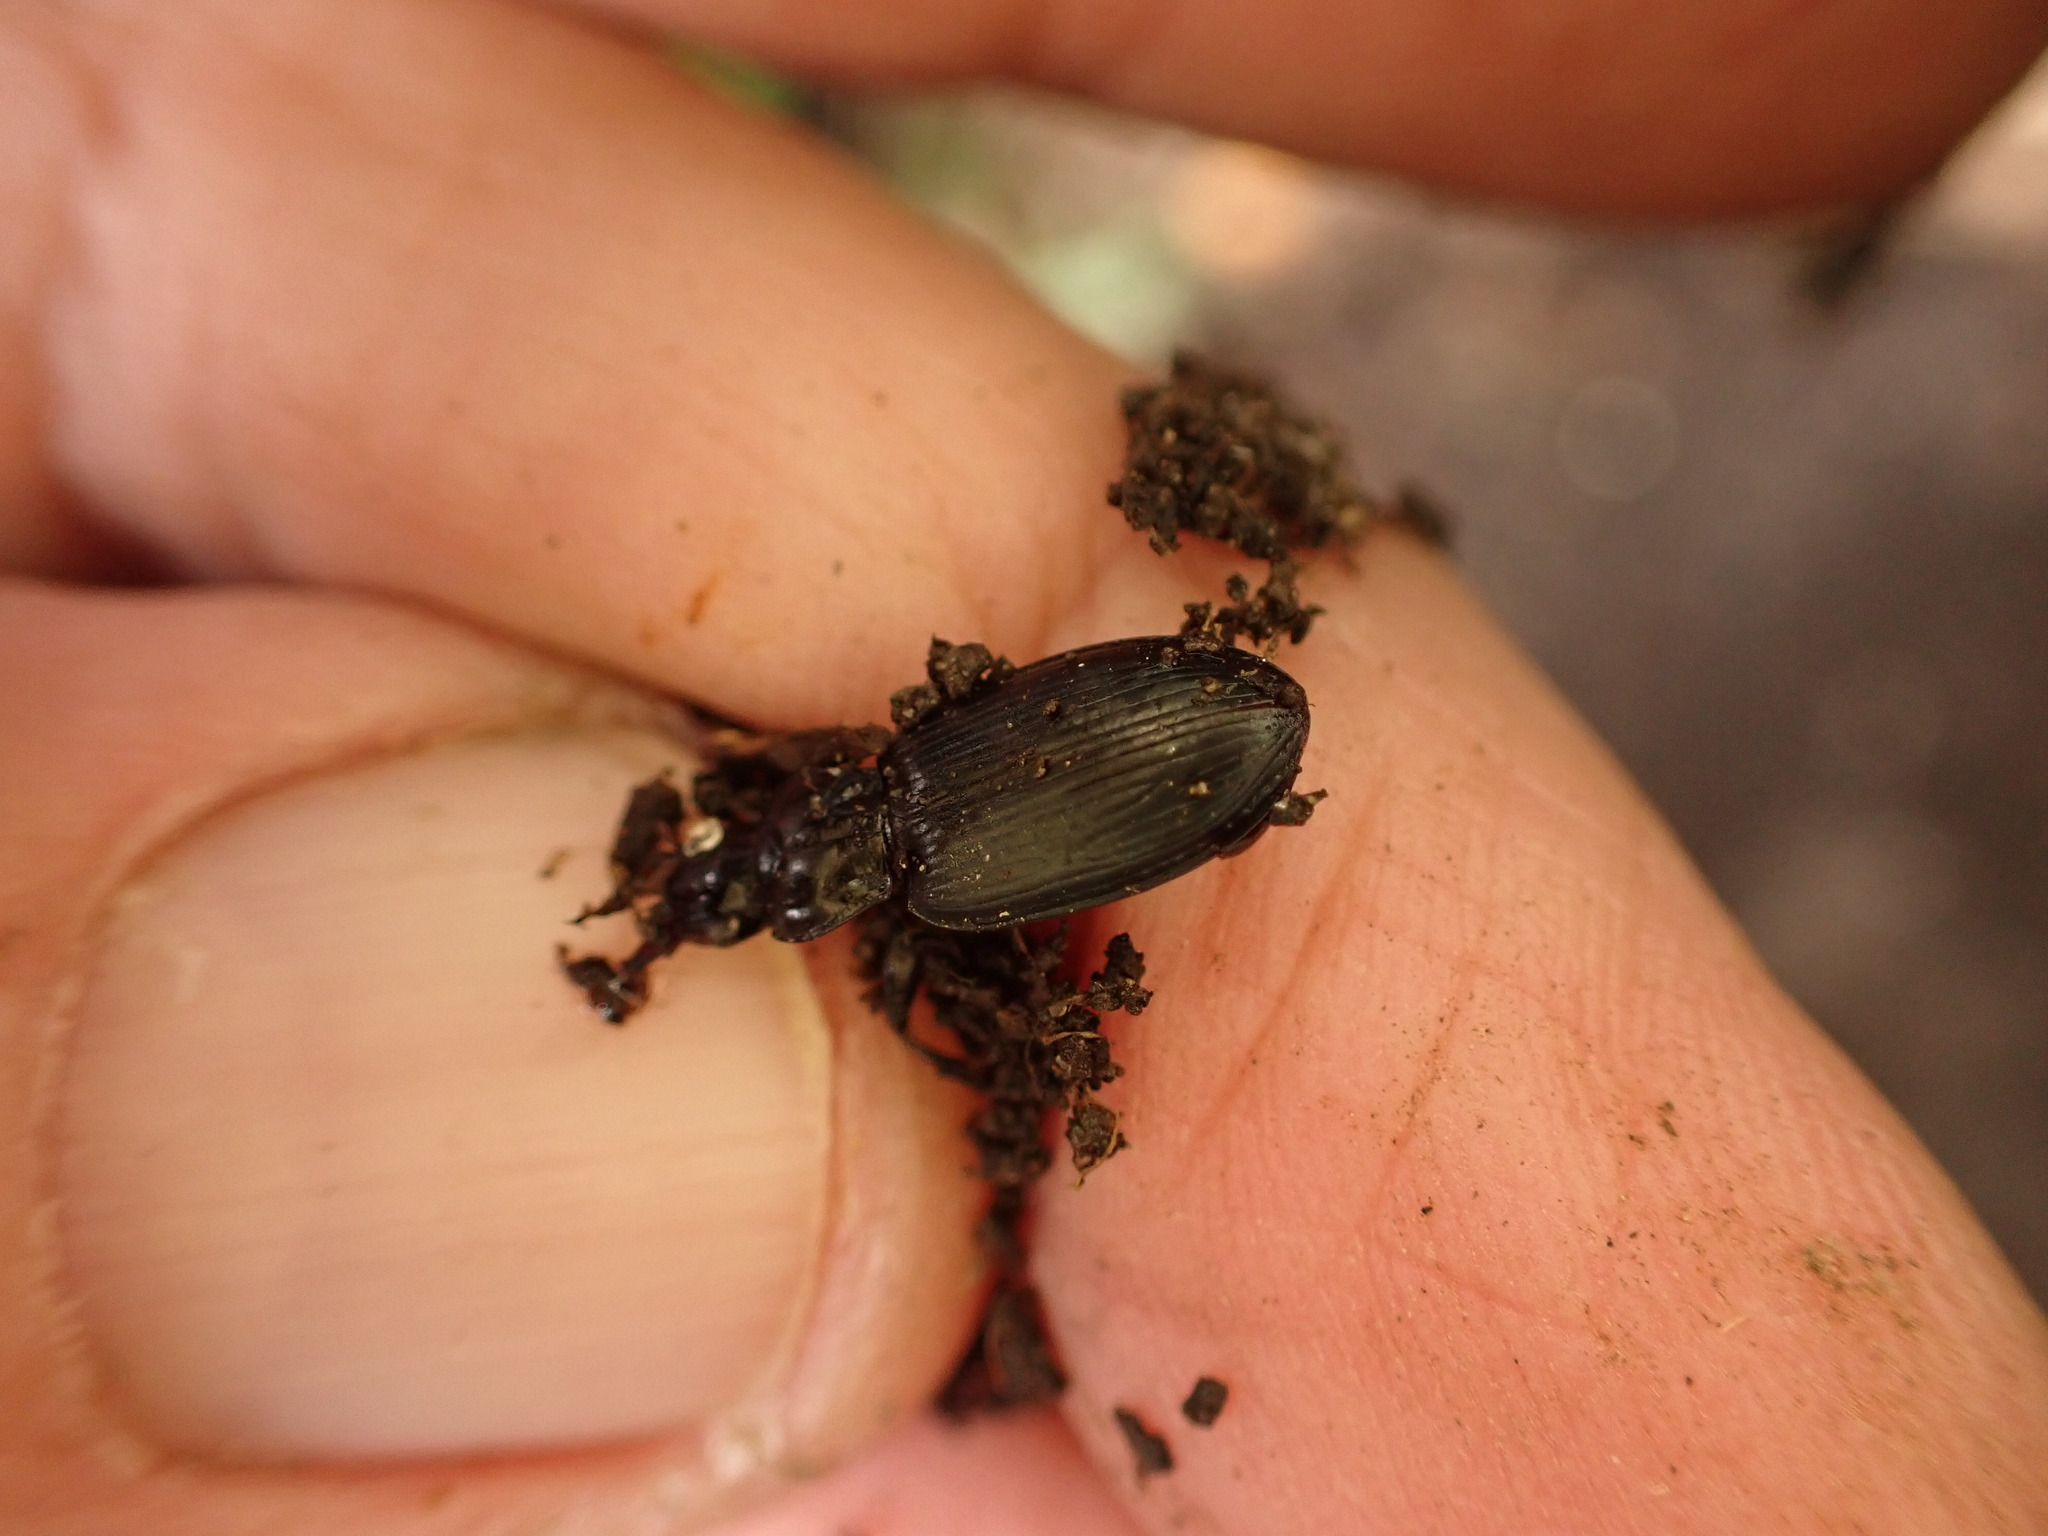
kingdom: Animalia
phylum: Arthropoda
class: Insecta
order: Coleoptera
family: Carabidae
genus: Laemostenus
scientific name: Laemostenus complanatus
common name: Cosmopolitan ground beetle
